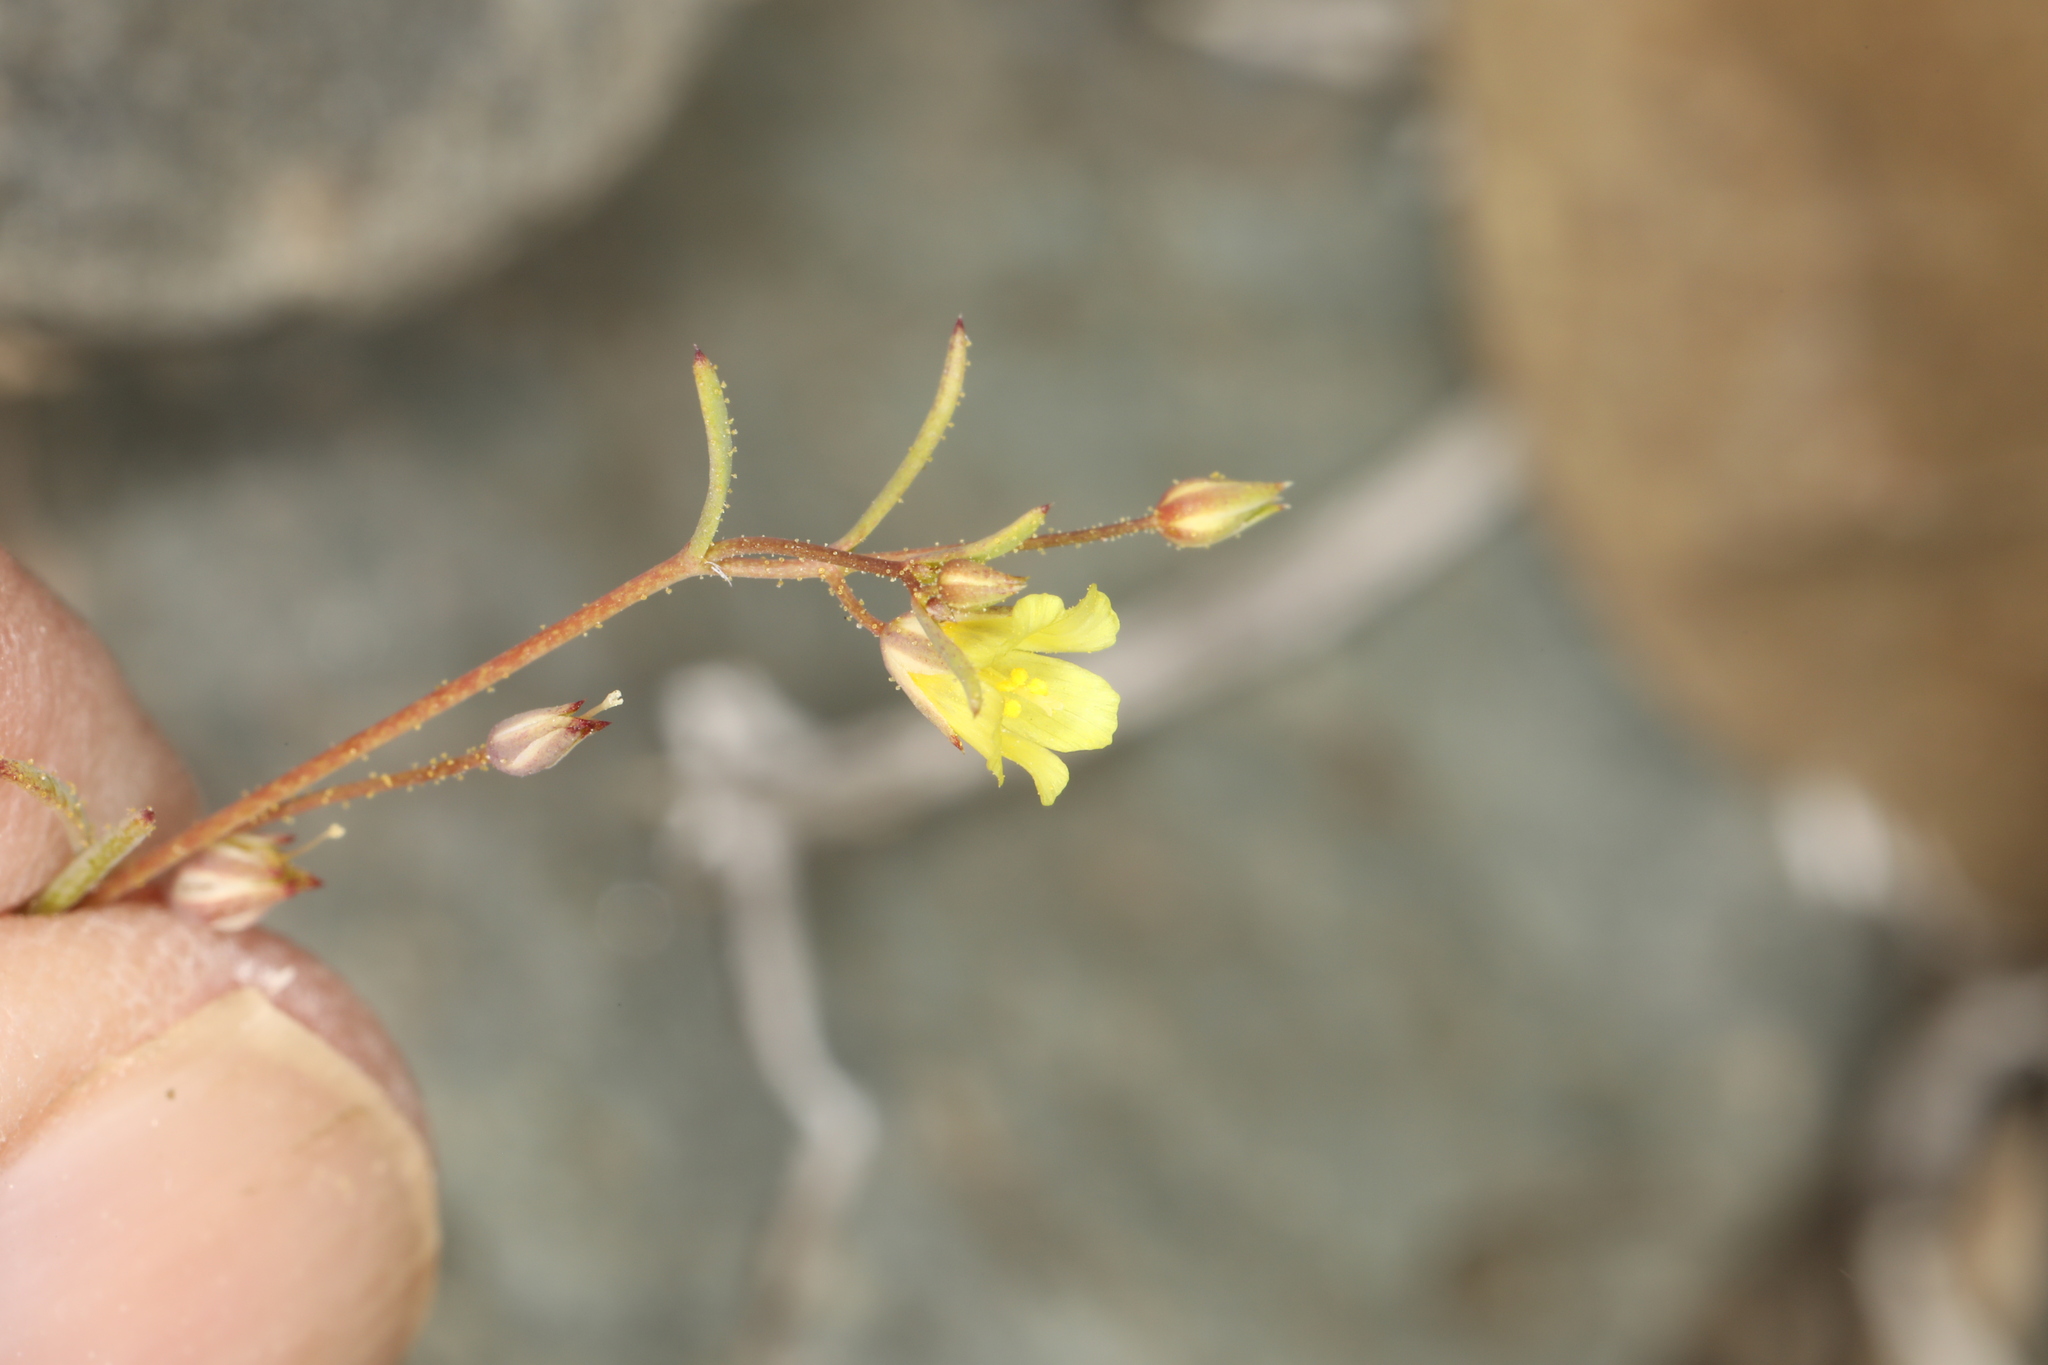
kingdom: Plantae
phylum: Tracheophyta
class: Magnoliopsida
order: Ericales
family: Polemoniaceae
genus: Linanthus
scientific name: Linanthus filiformis
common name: Yellow gilia
